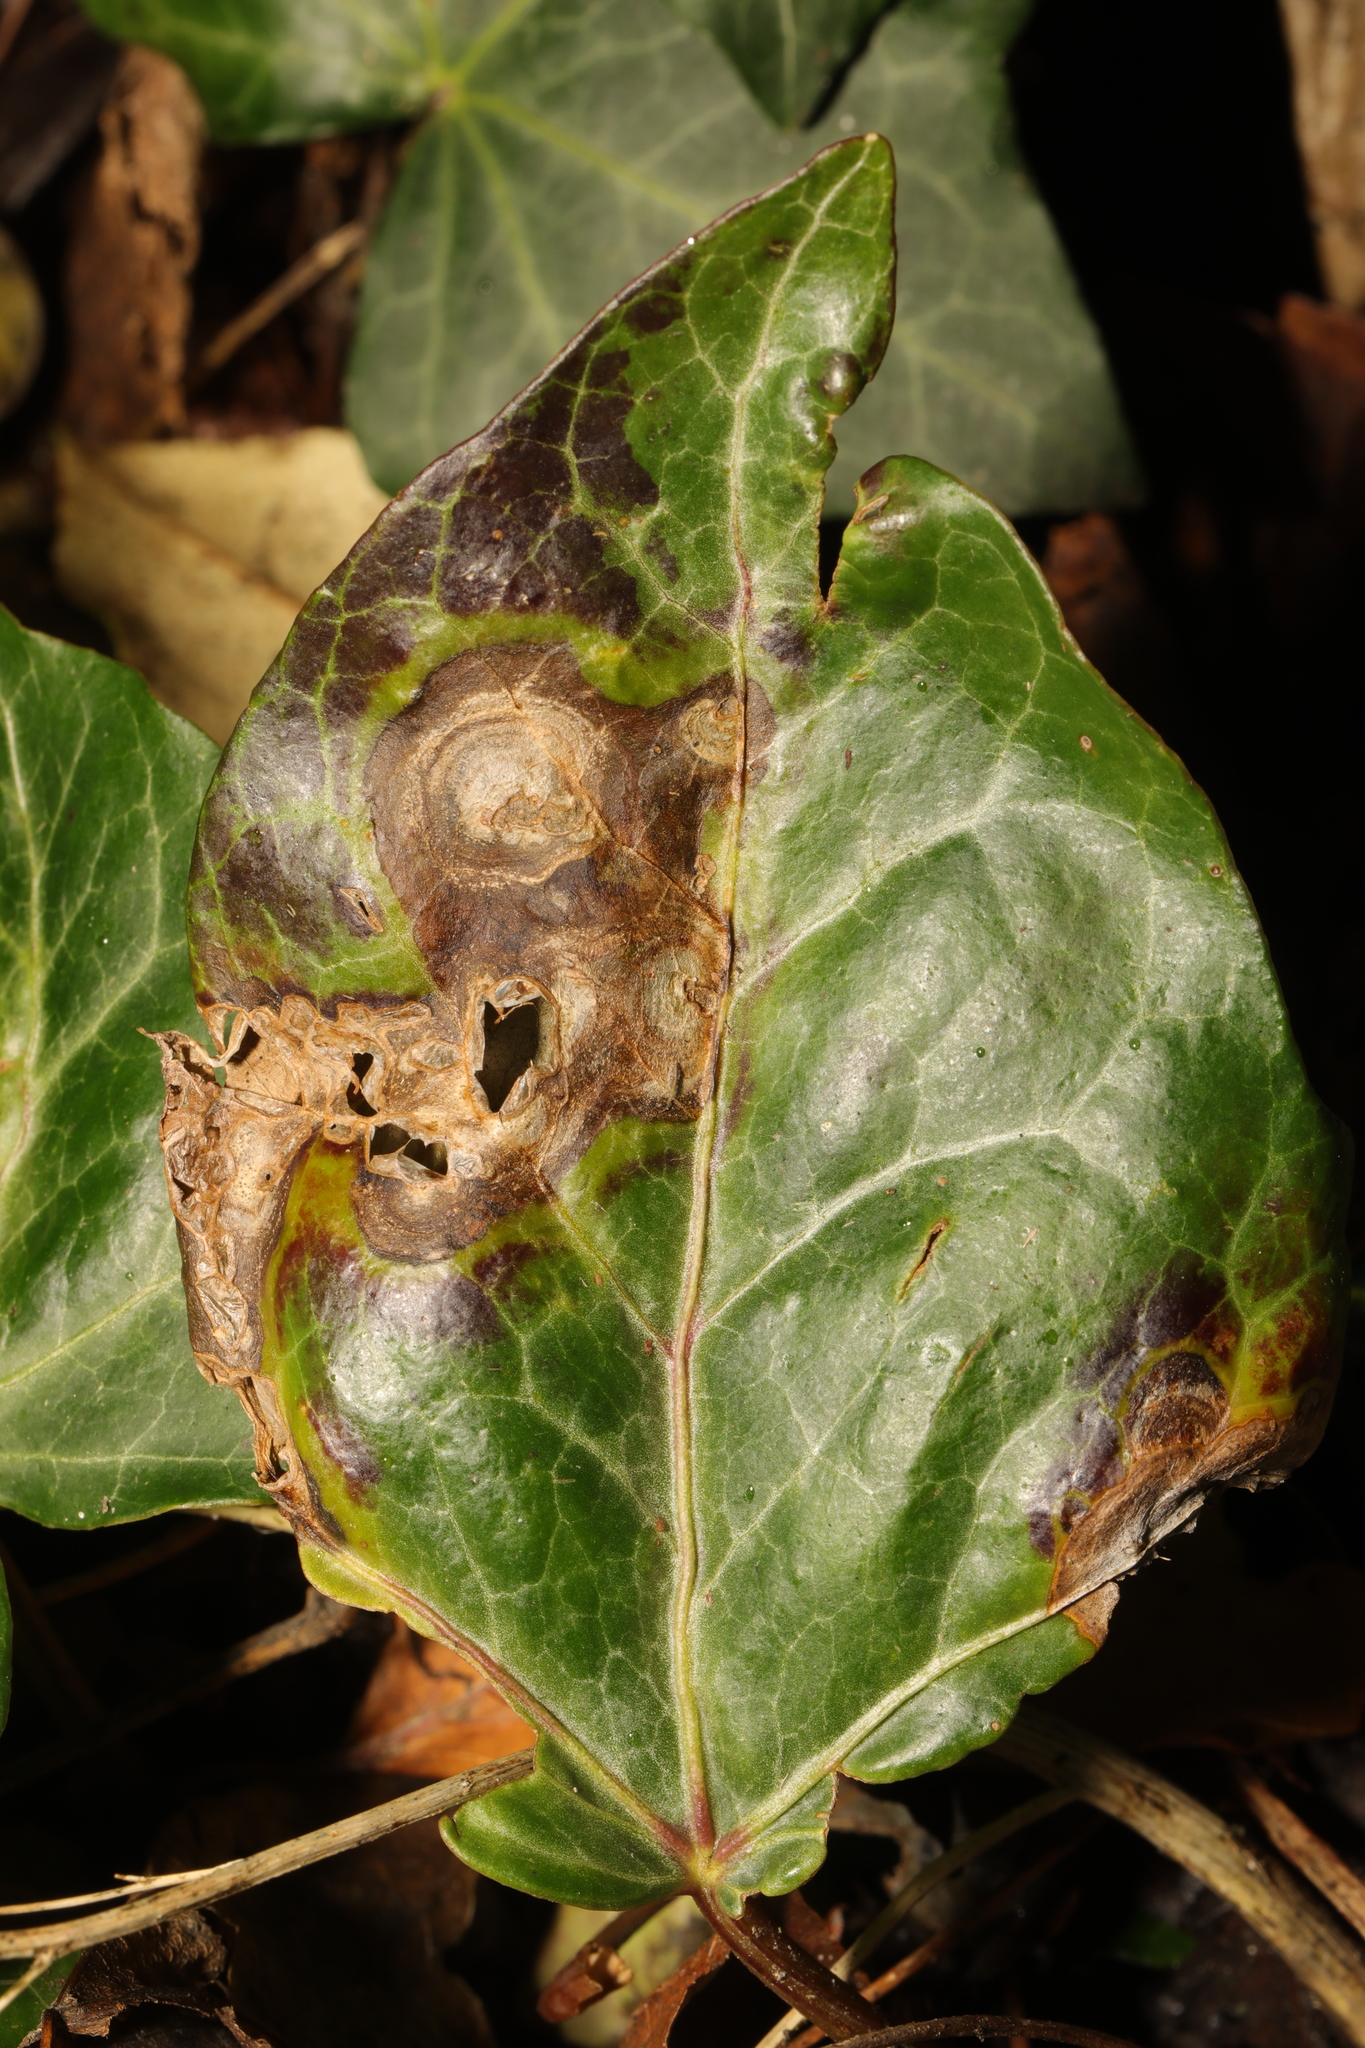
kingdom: Fungi
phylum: Ascomycota
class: Dothideomycetes
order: Pleosporales
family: Didymellaceae
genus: Boeremia
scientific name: Boeremia hedericola
